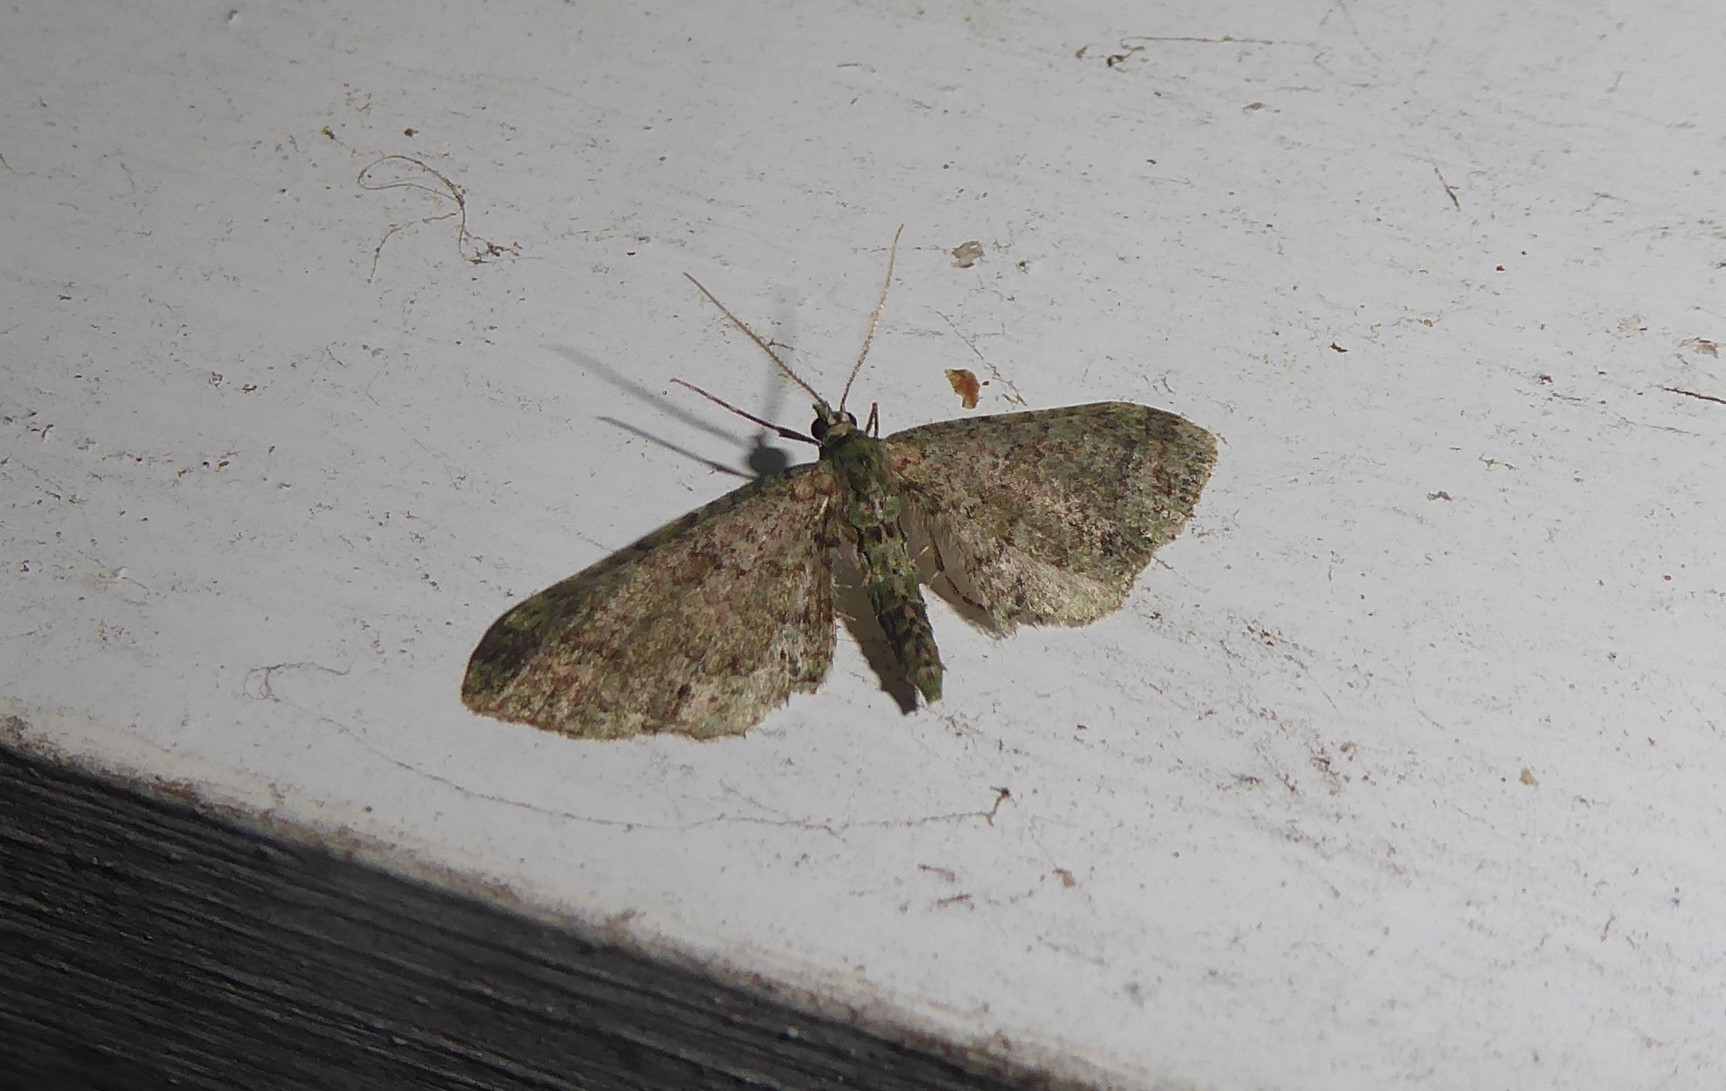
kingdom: Animalia
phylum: Arthropoda
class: Insecta
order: Lepidoptera
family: Geometridae
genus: Idaea
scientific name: Idaea mutanda
